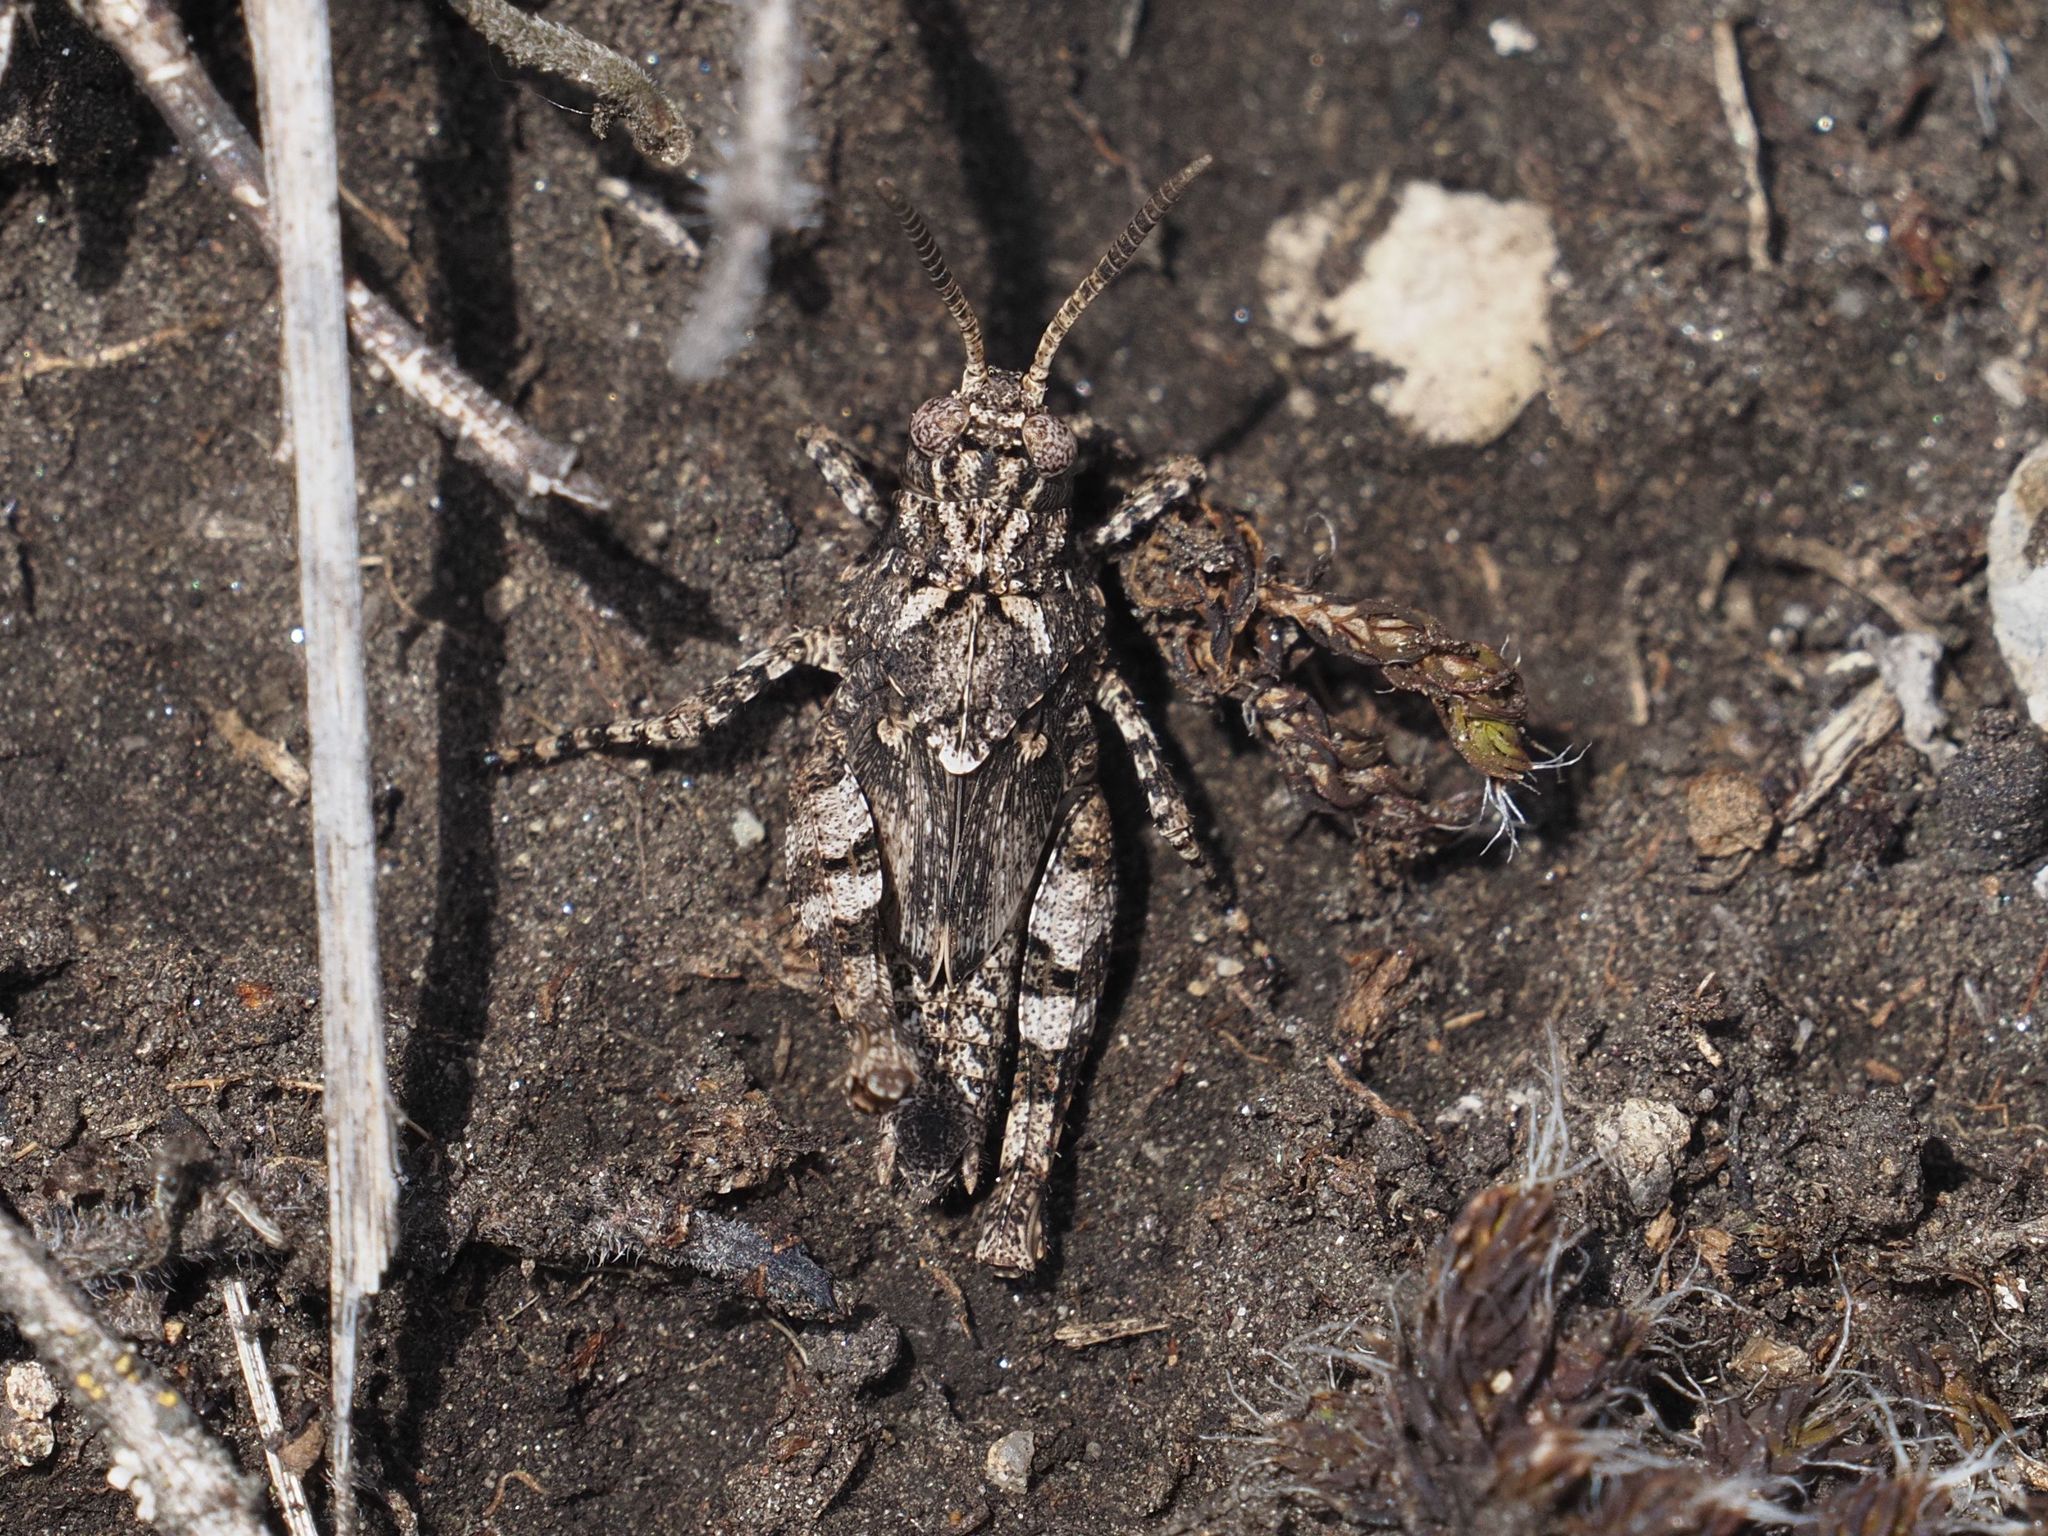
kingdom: Animalia
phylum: Arthropoda
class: Insecta
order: Orthoptera
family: Acrididae
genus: Oedipoda
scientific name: Oedipoda caerulescens
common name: Blue-winged grasshopper
